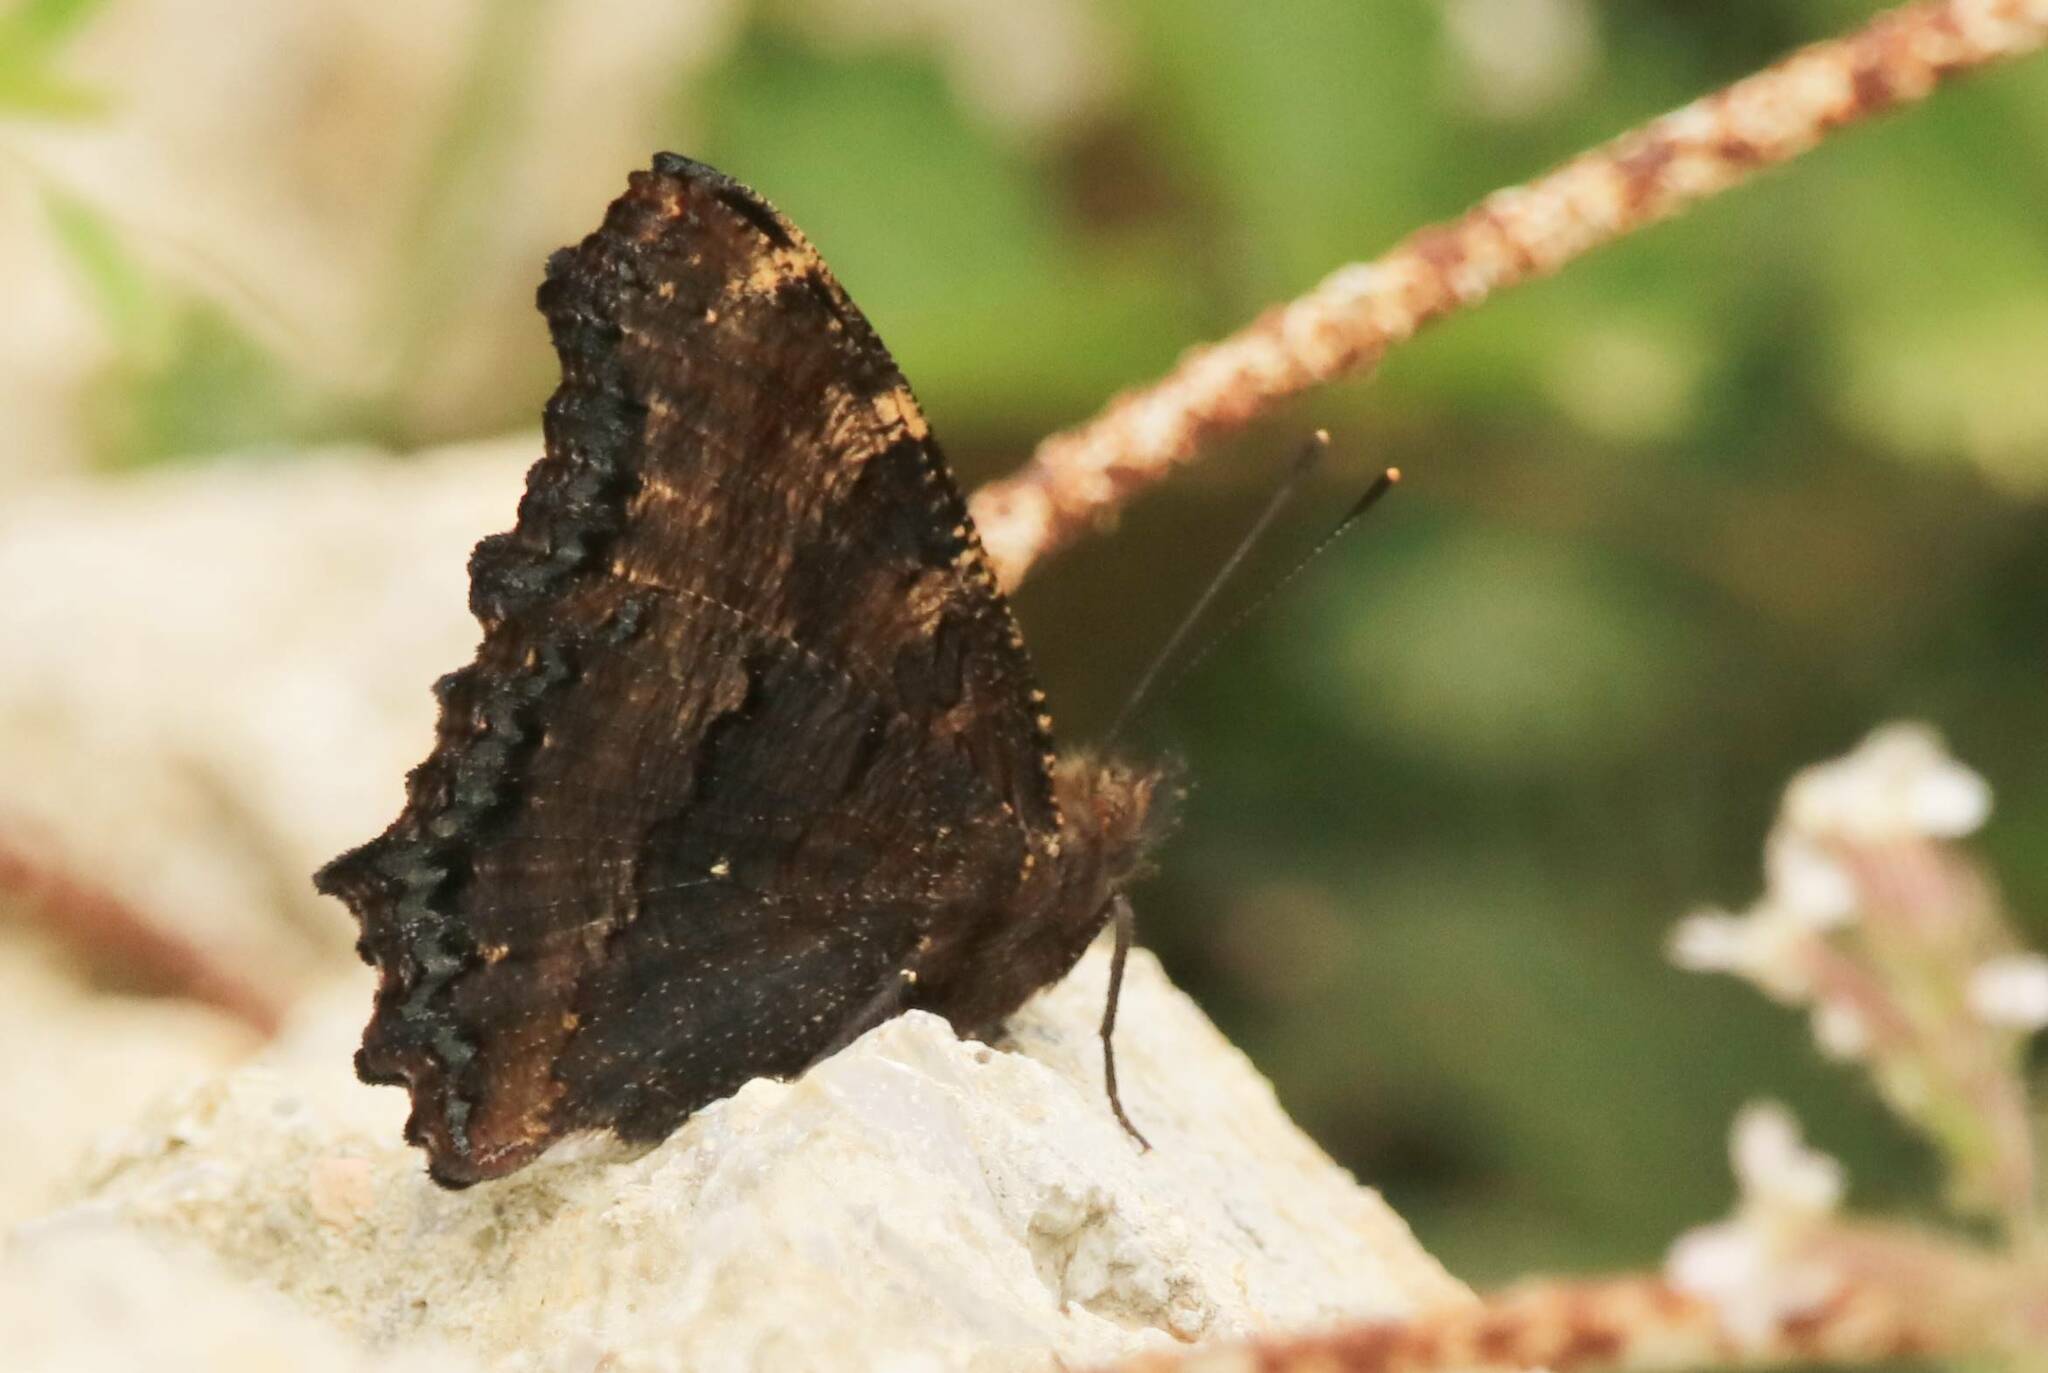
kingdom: Animalia
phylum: Arthropoda
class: Insecta
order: Lepidoptera
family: Nymphalidae
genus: Nymphalis
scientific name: Nymphalis polychloros
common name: Large tortoiseshell
